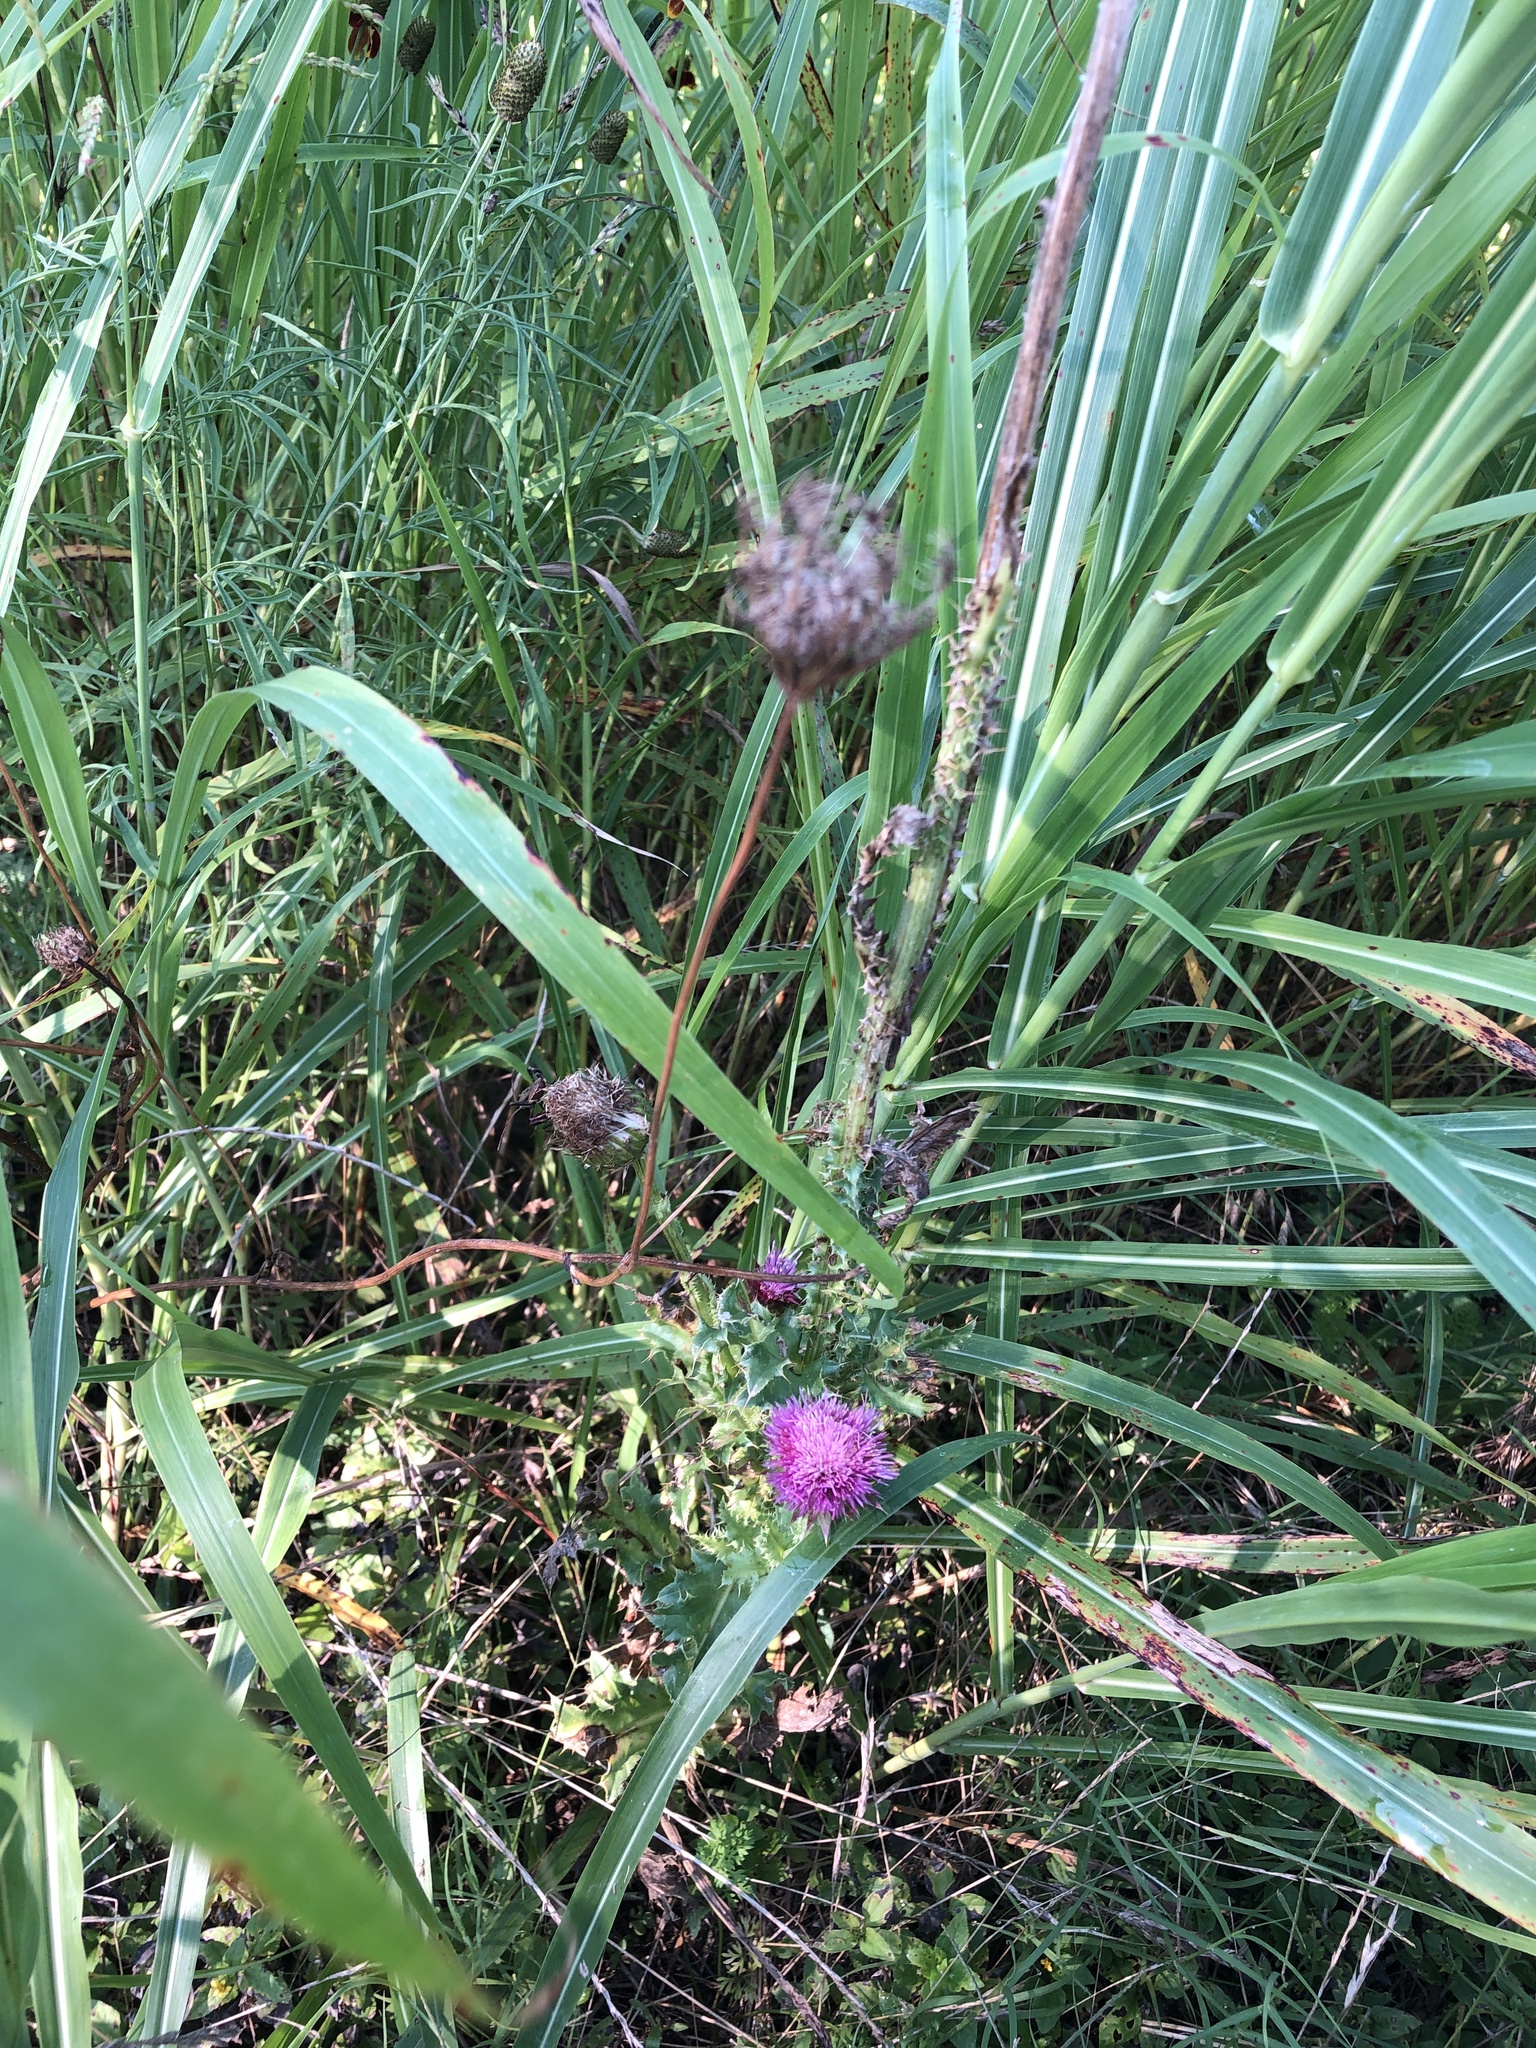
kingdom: Plantae
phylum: Tracheophyta
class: Magnoliopsida
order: Asterales
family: Asteraceae
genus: Carduus
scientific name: Carduus nutans
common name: Musk thistle
